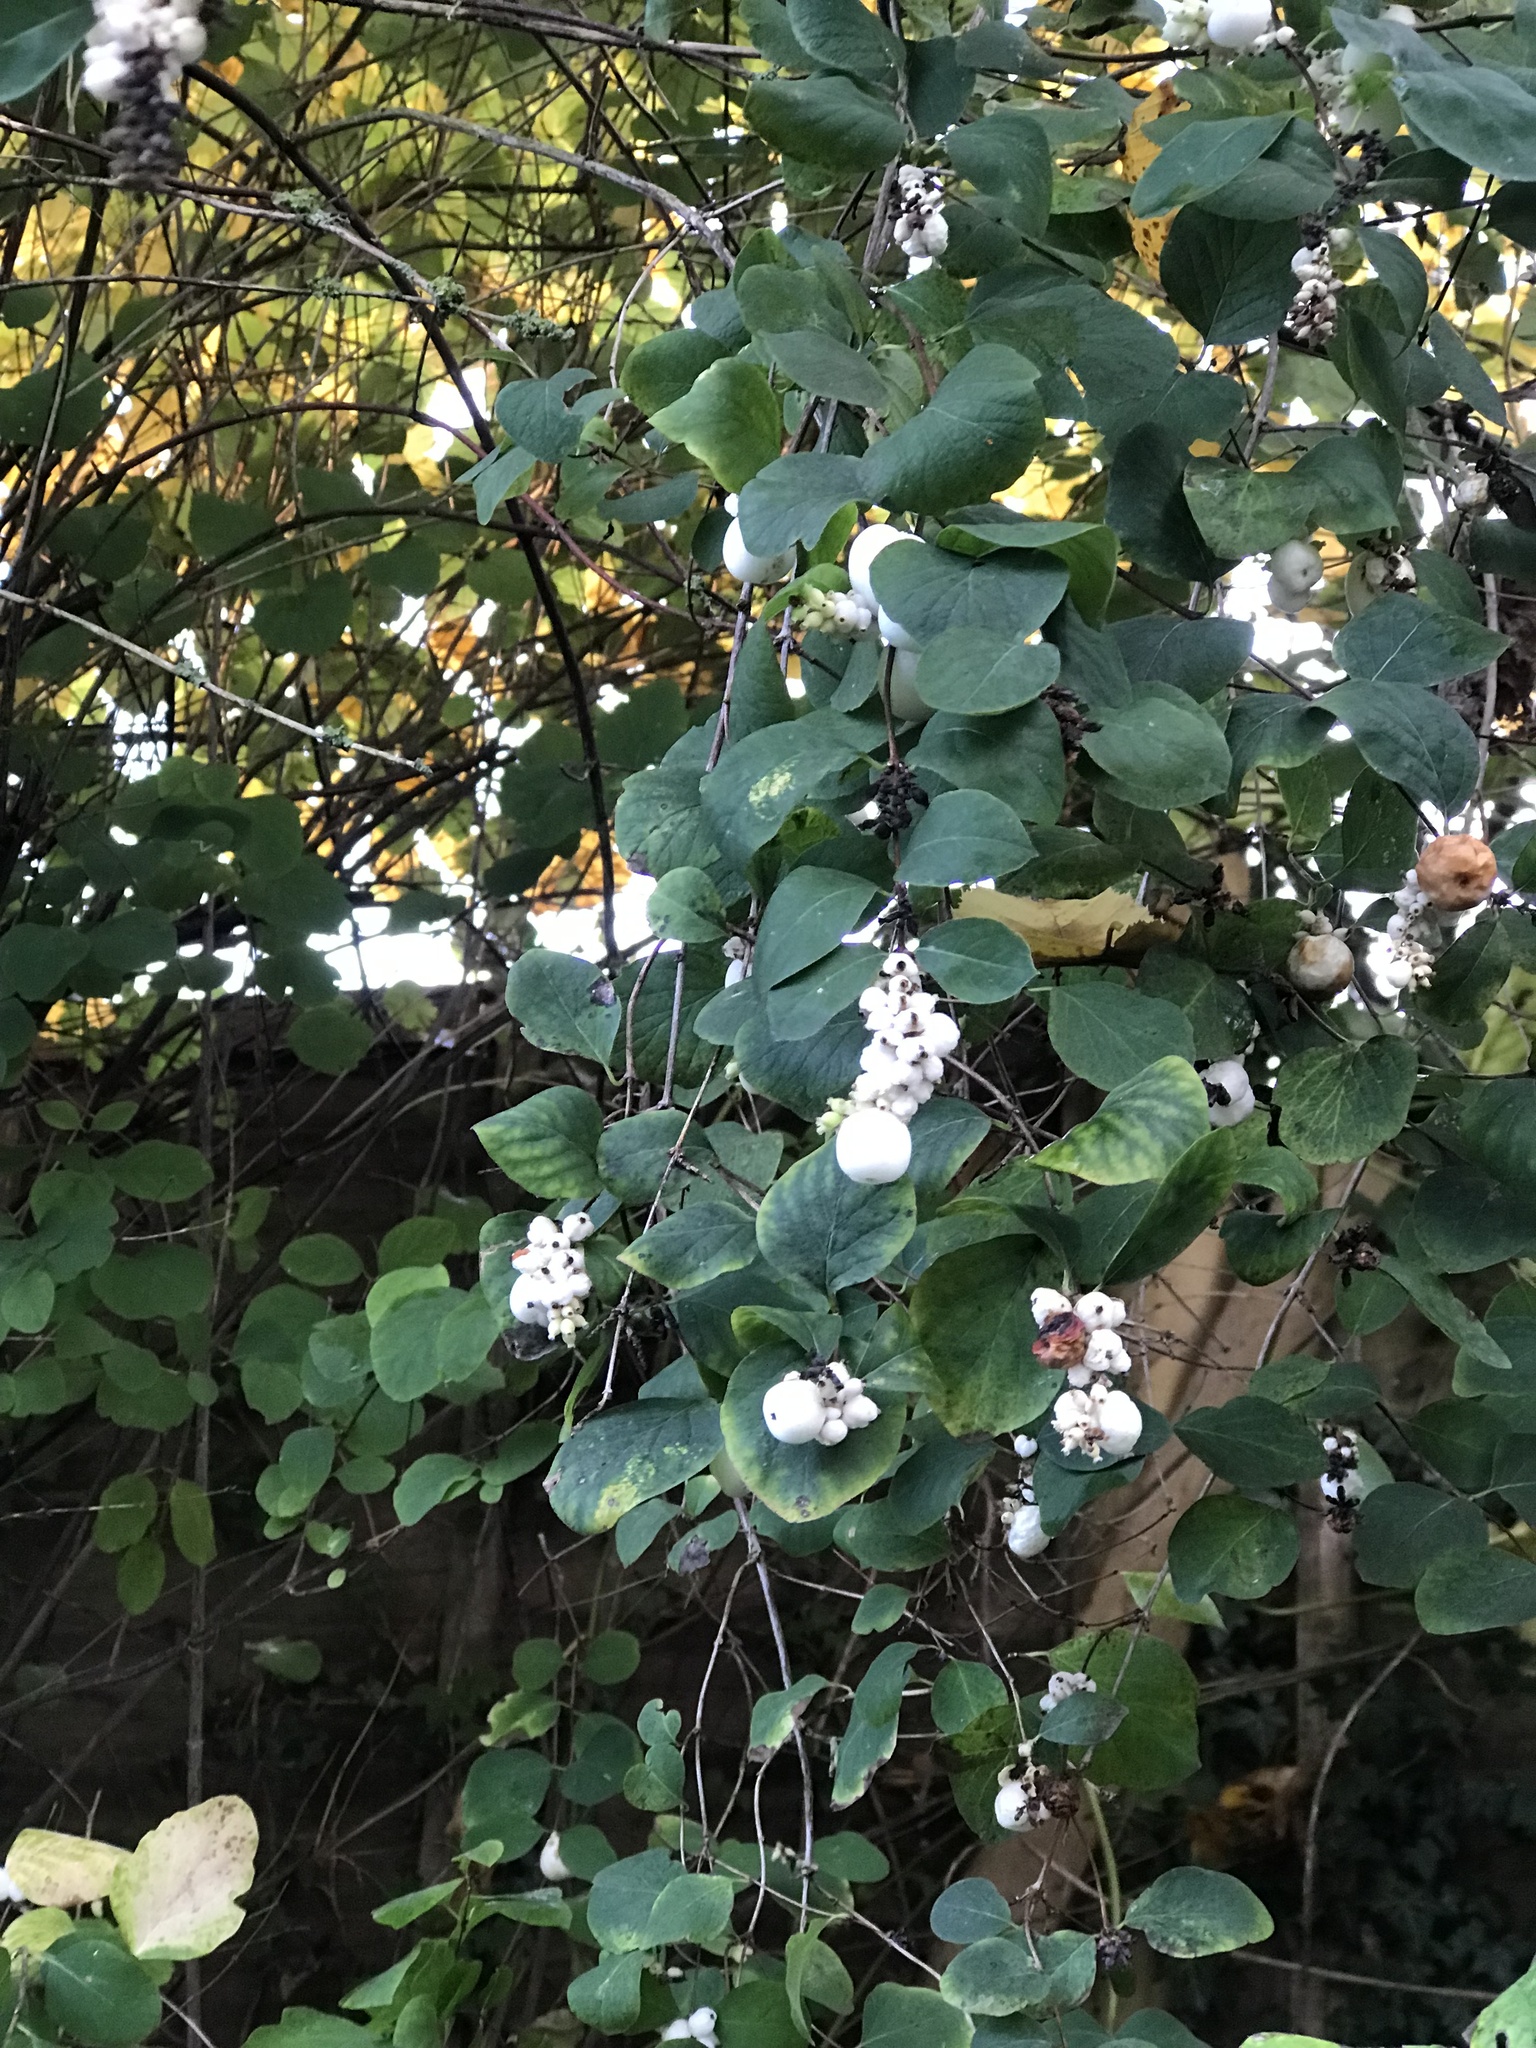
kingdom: Plantae
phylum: Tracheophyta
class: Magnoliopsida
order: Dipsacales
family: Caprifoliaceae
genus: Symphoricarpos
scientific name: Symphoricarpos albus
